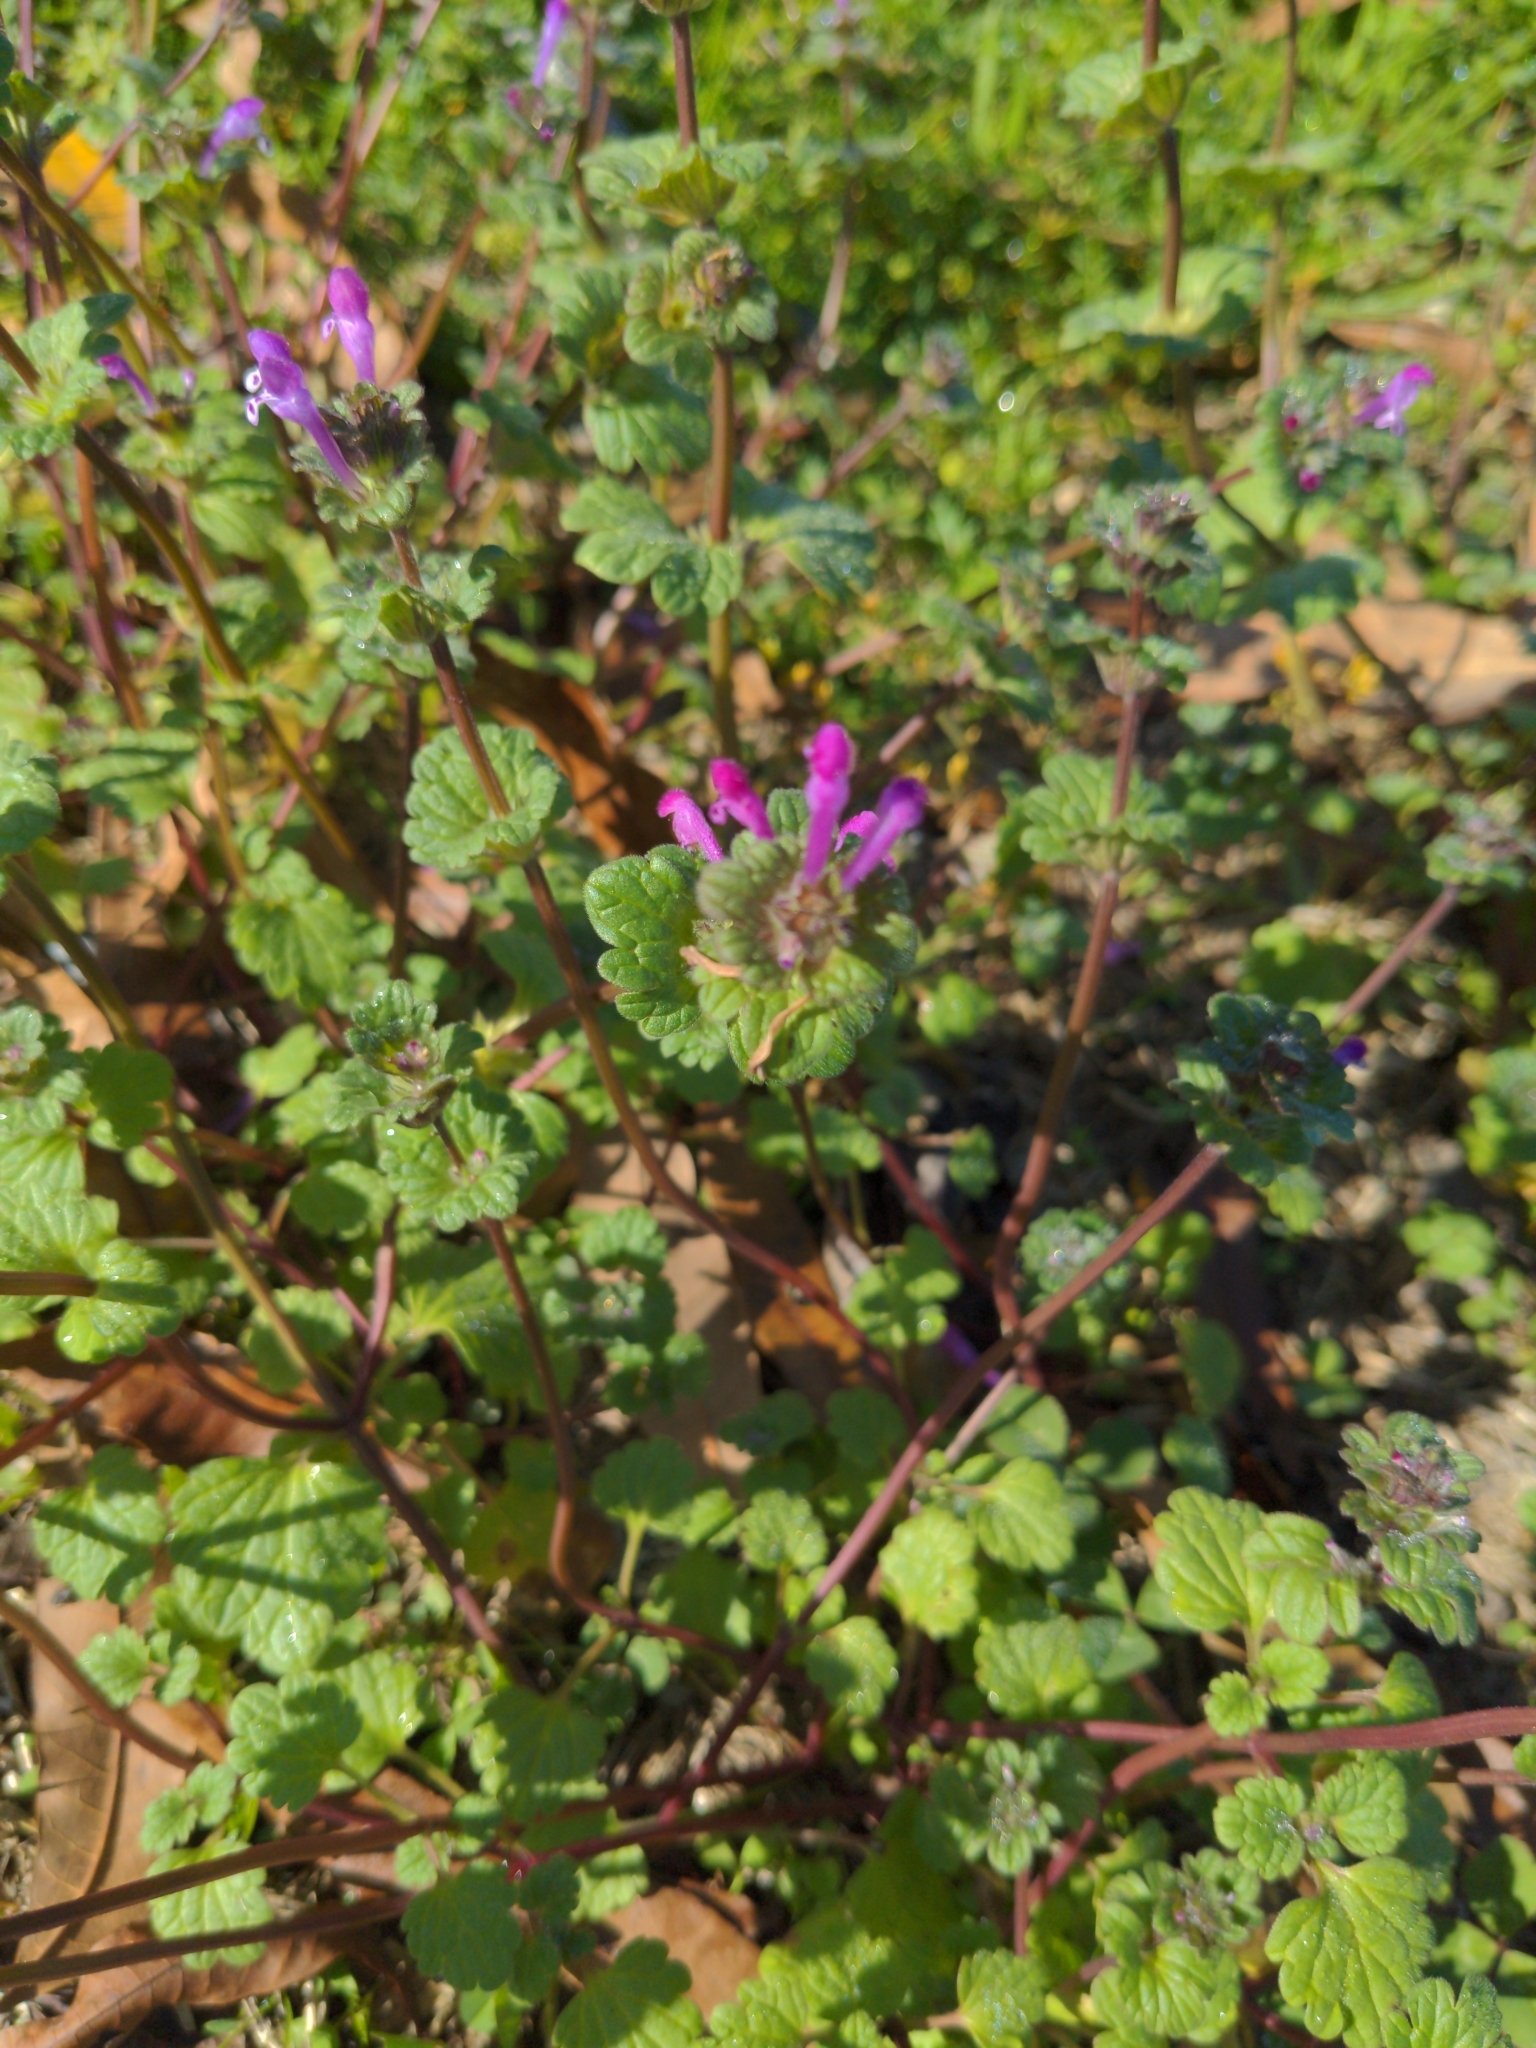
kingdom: Plantae
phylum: Tracheophyta
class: Magnoliopsida
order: Lamiales
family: Lamiaceae
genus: Lamium
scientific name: Lamium amplexicaule
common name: Henbit dead-nettle
